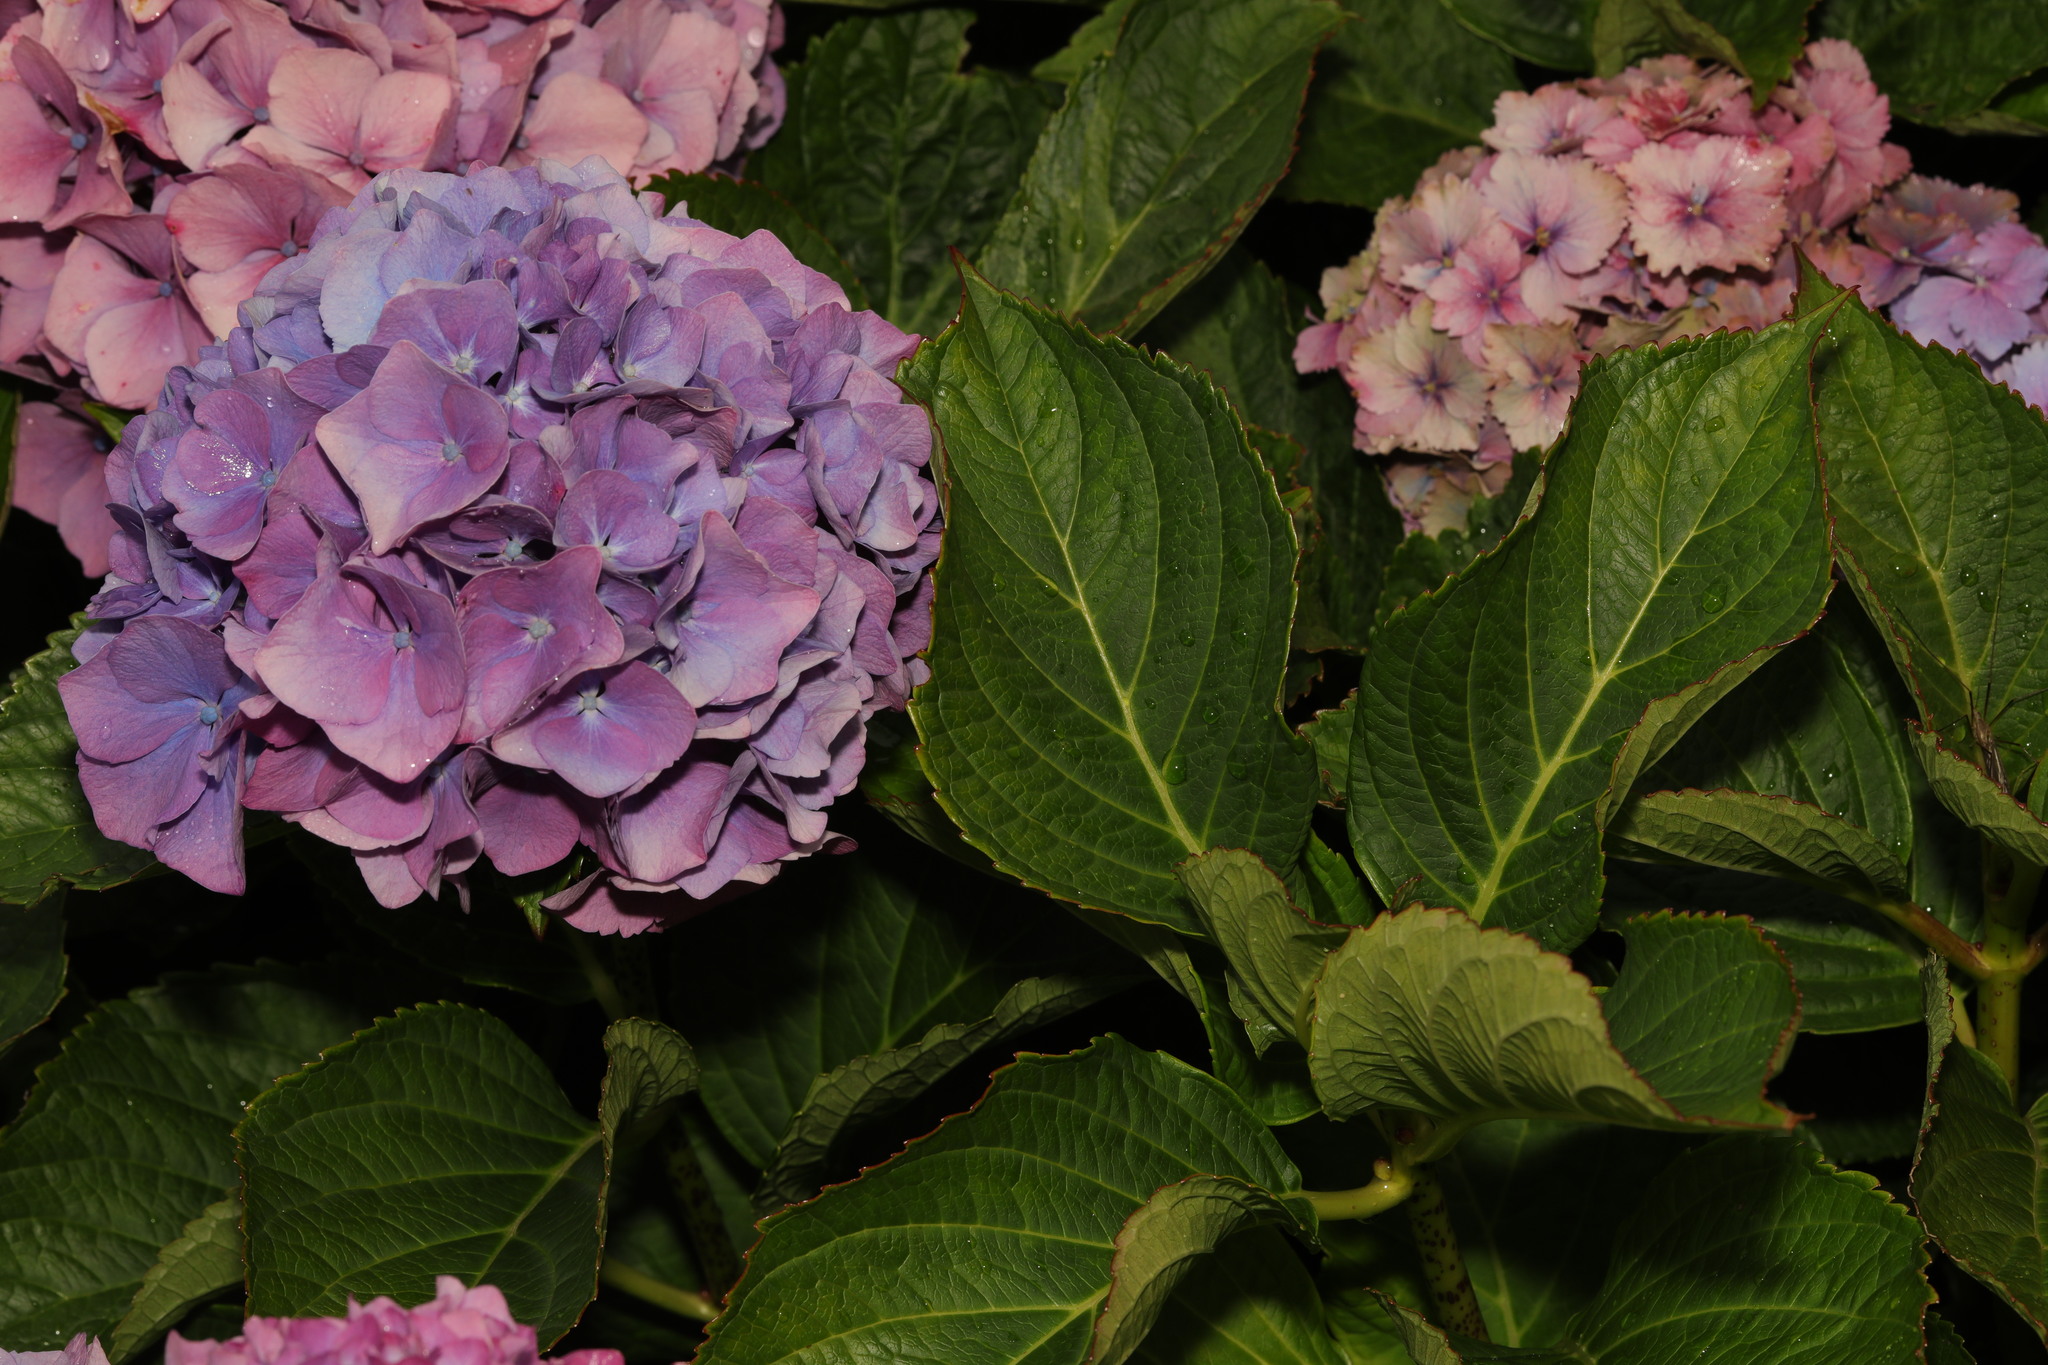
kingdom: Plantae
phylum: Tracheophyta
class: Magnoliopsida
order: Cornales
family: Hydrangeaceae
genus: Hydrangea
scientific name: Hydrangea macrophylla
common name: Hydrangea
